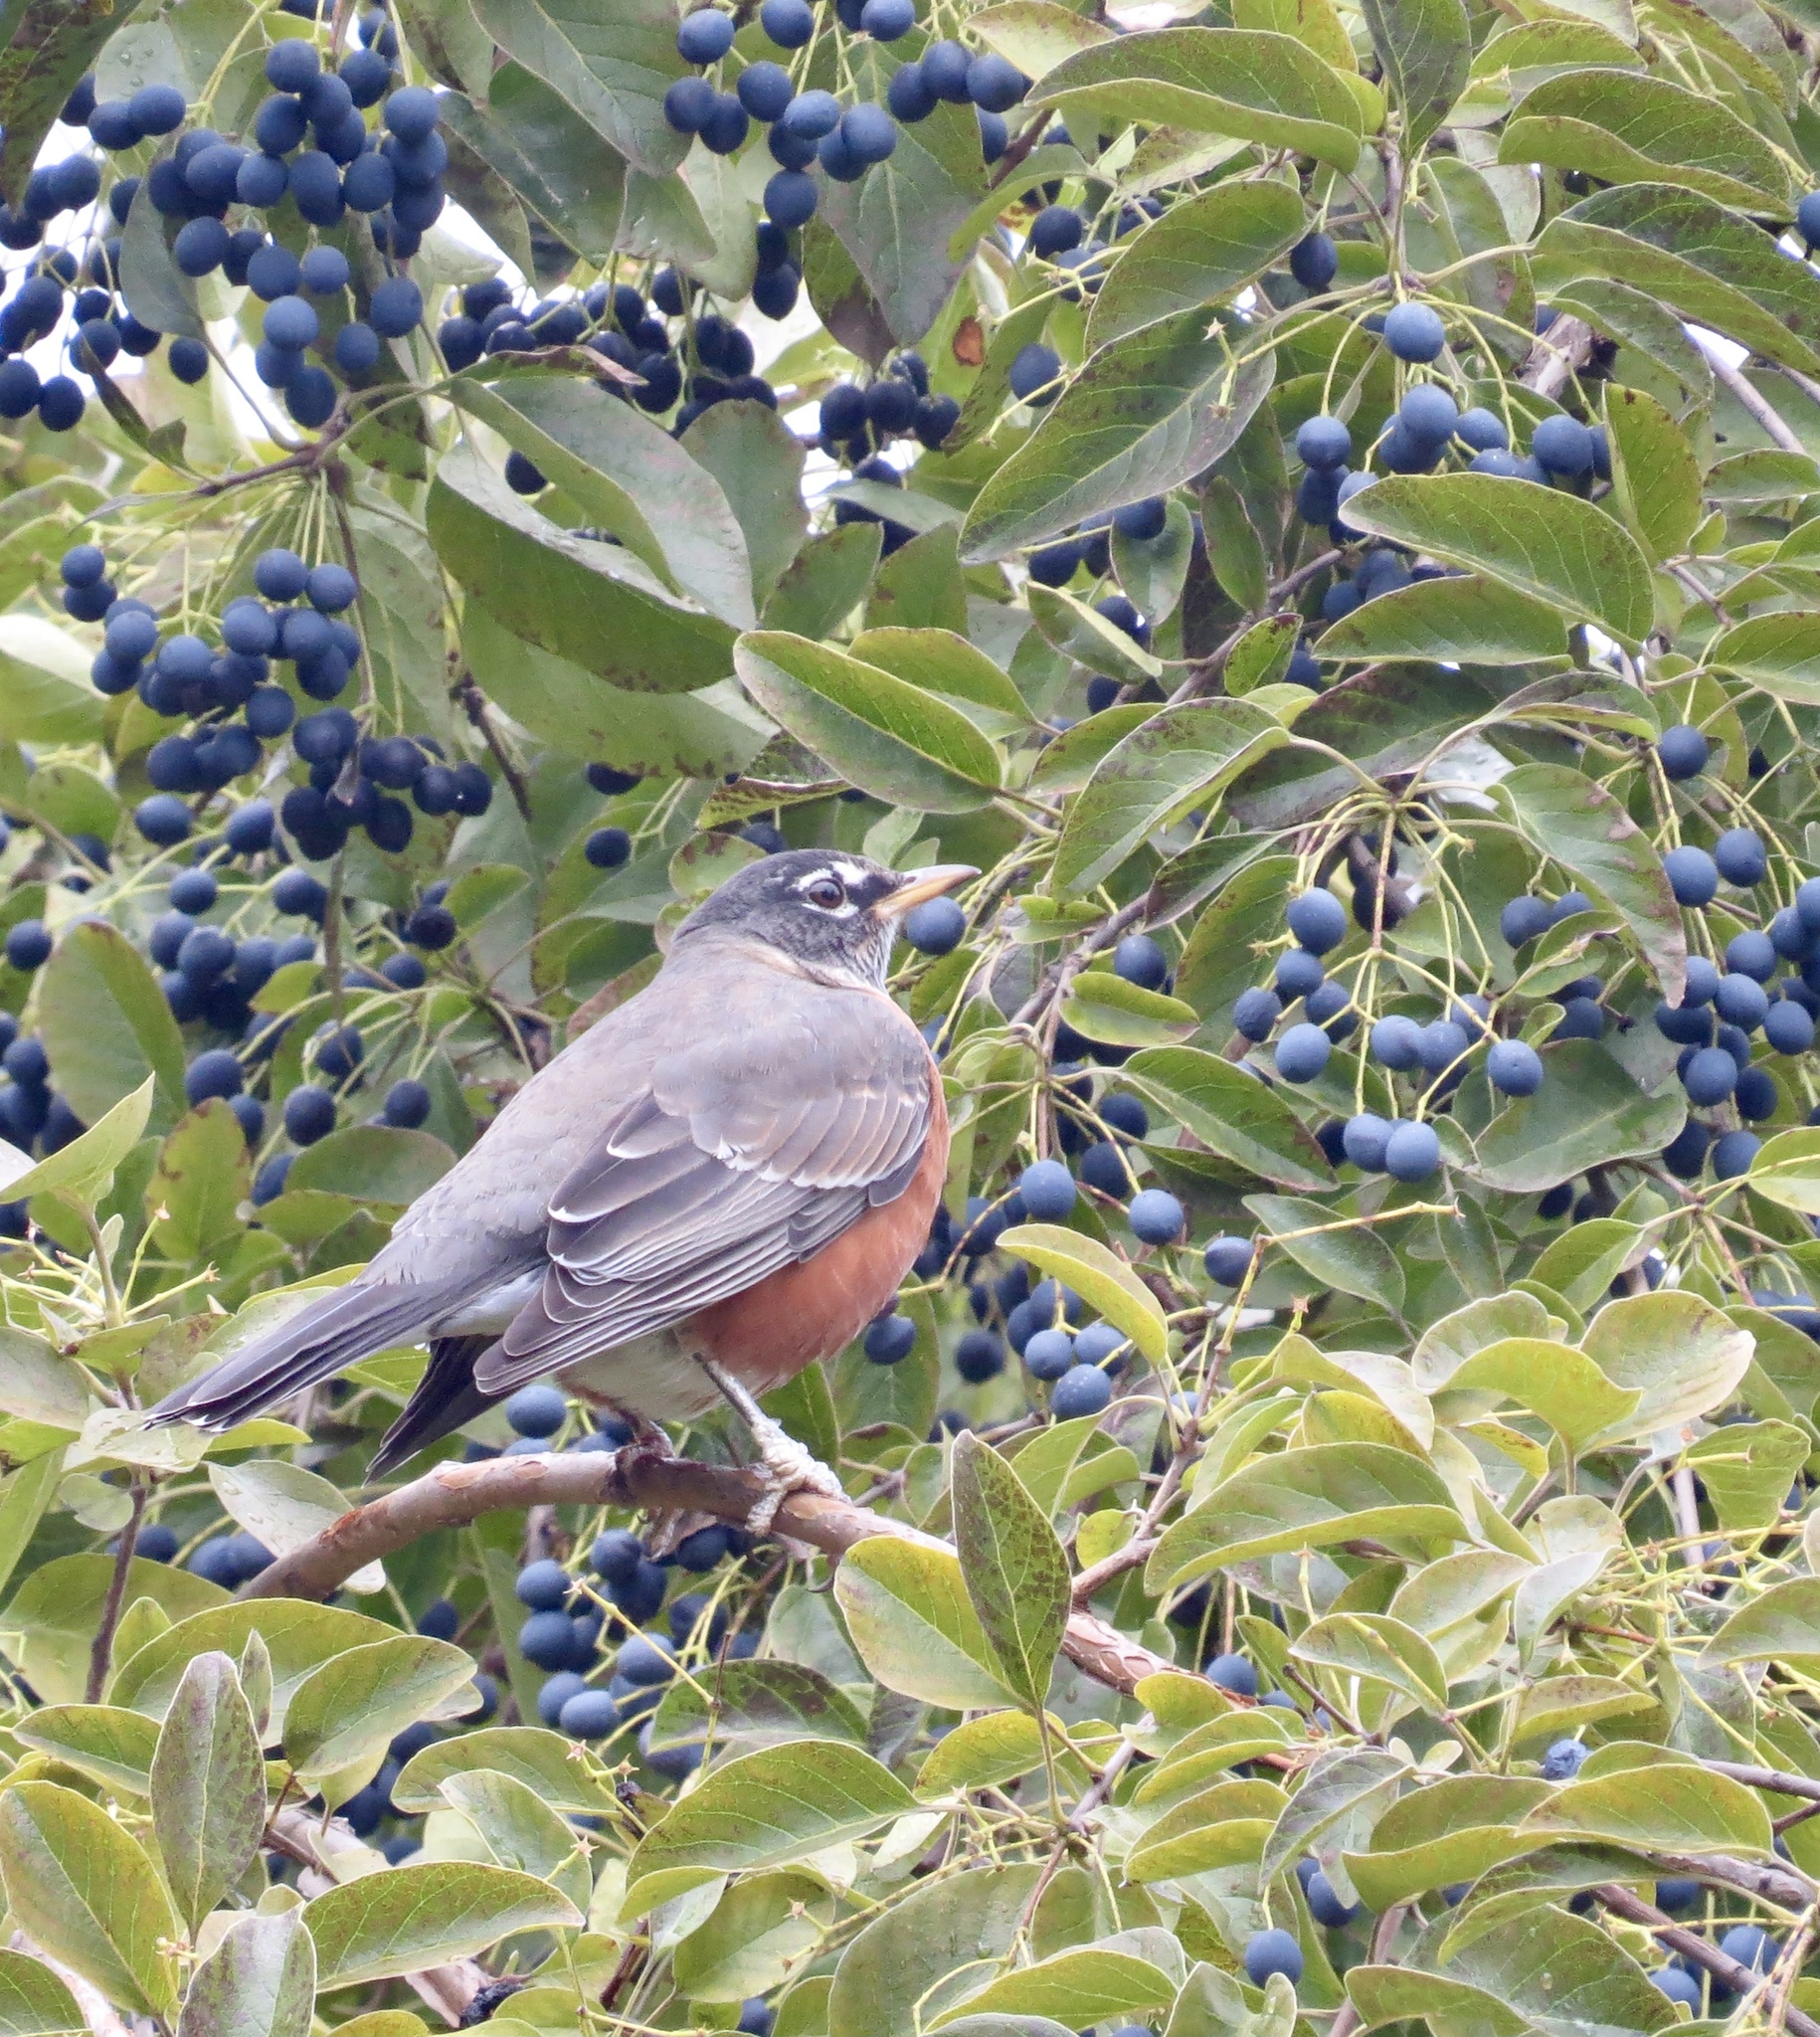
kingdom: Animalia
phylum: Chordata
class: Aves
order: Passeriformes
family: Turdidae
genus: Turdus
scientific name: Turdus migratorius
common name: American robin
